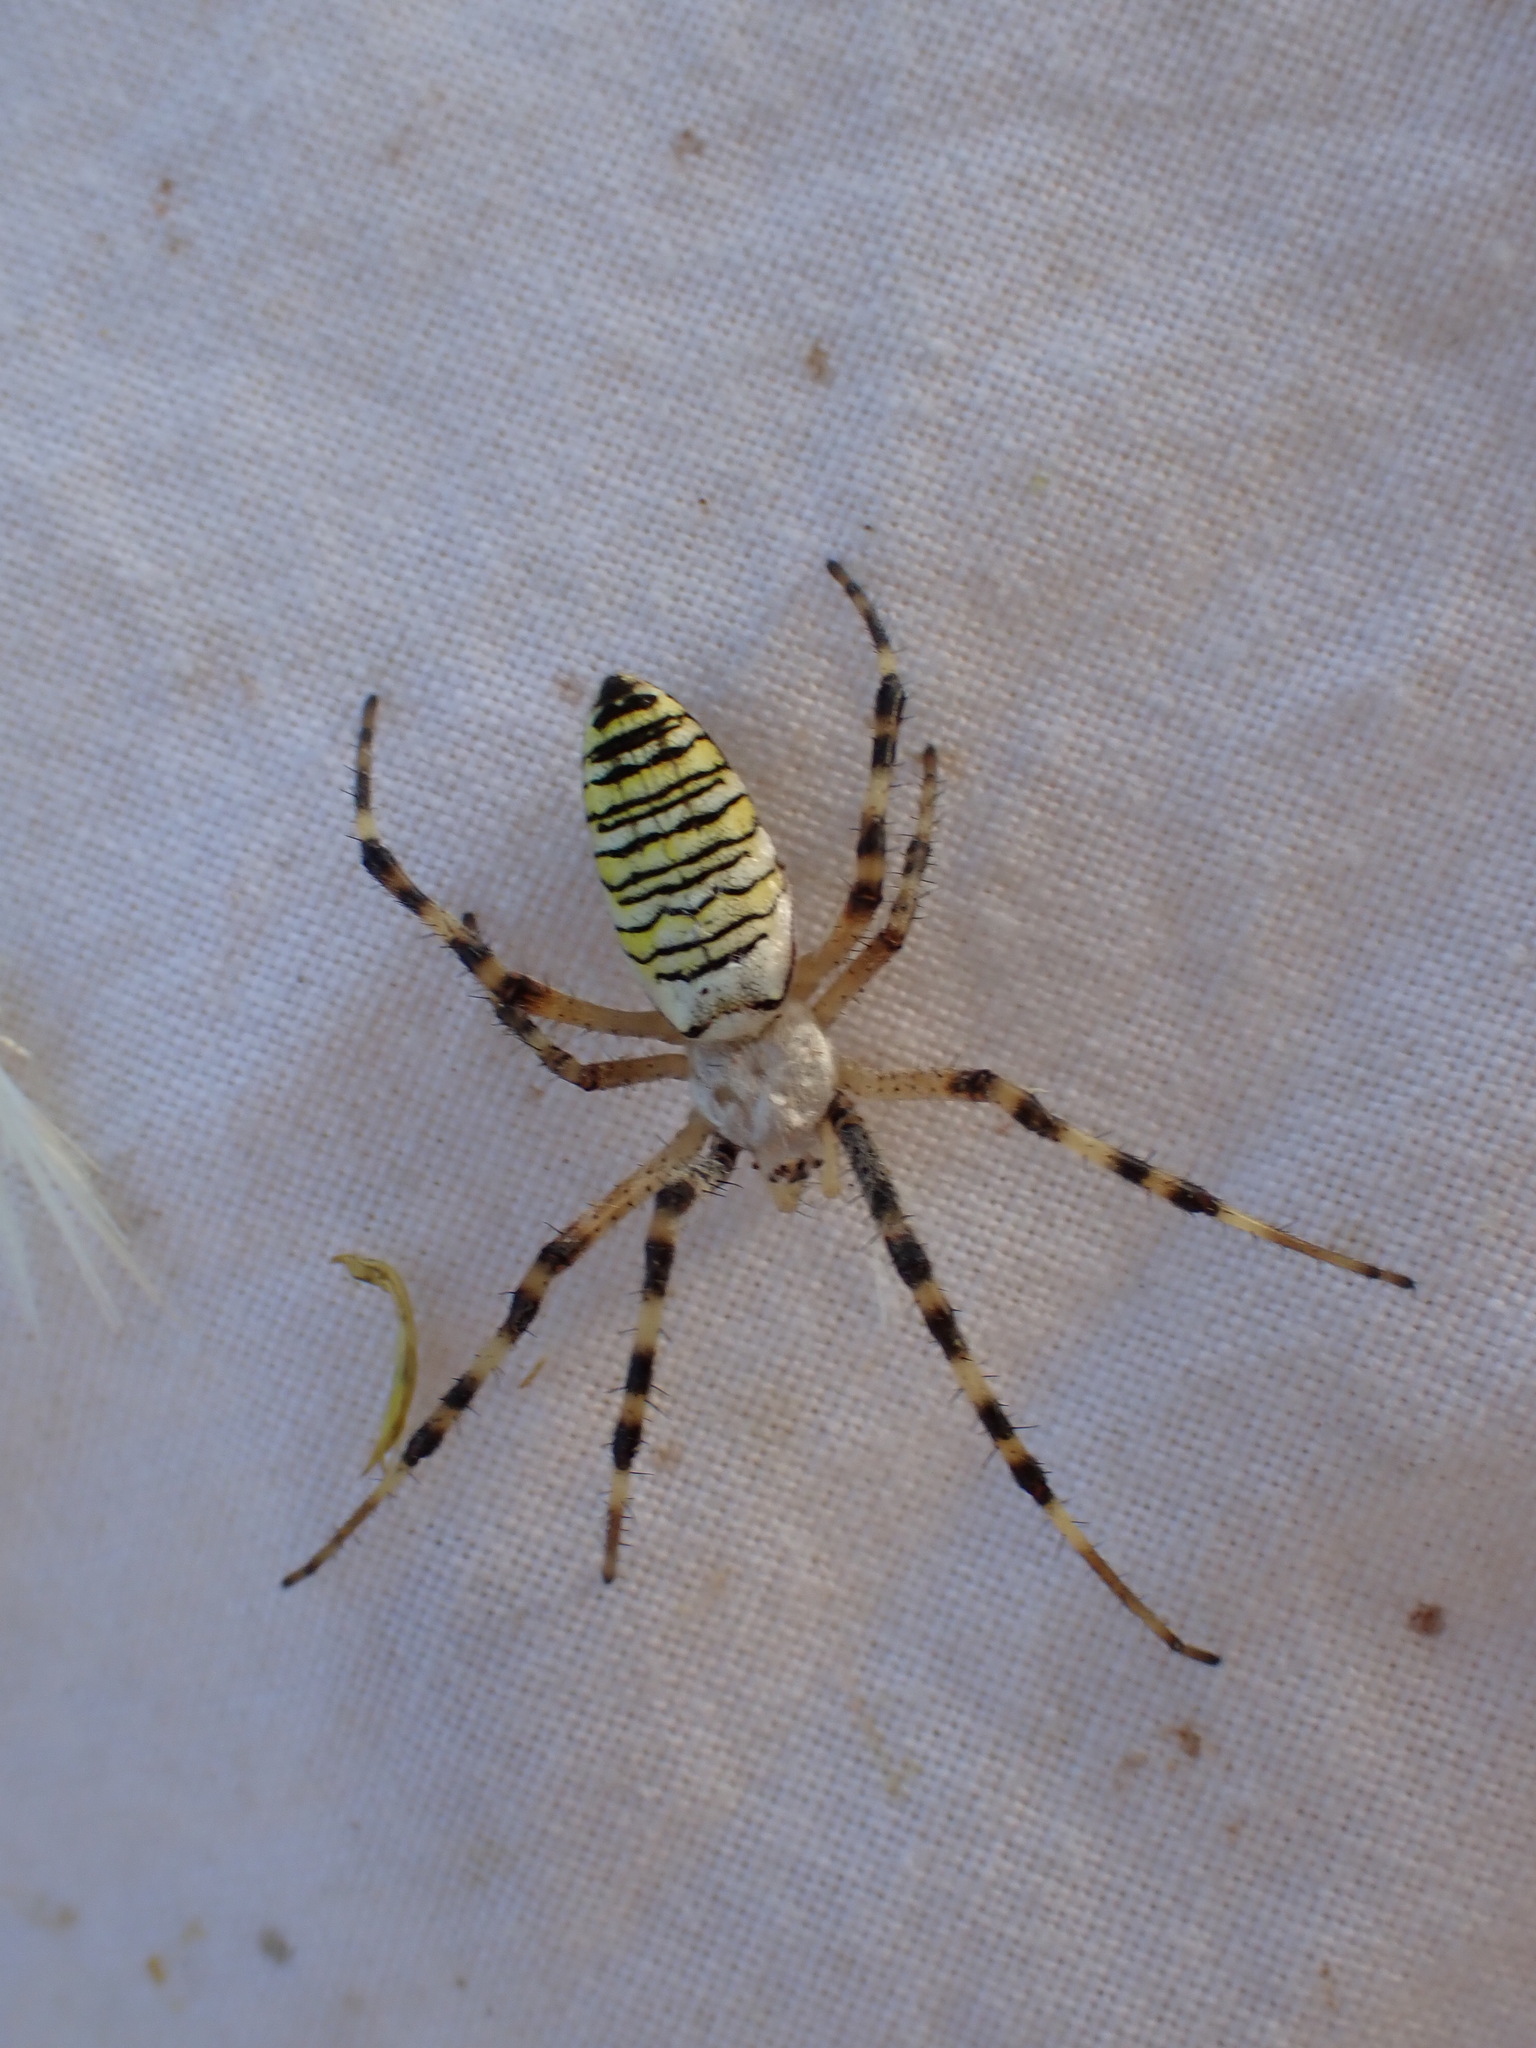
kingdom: Animalia
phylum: Arthropoda
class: Arachnida
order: Araneae
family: Araneidae
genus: Argiope
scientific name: Argiope bruennichi
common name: Wasp spider
